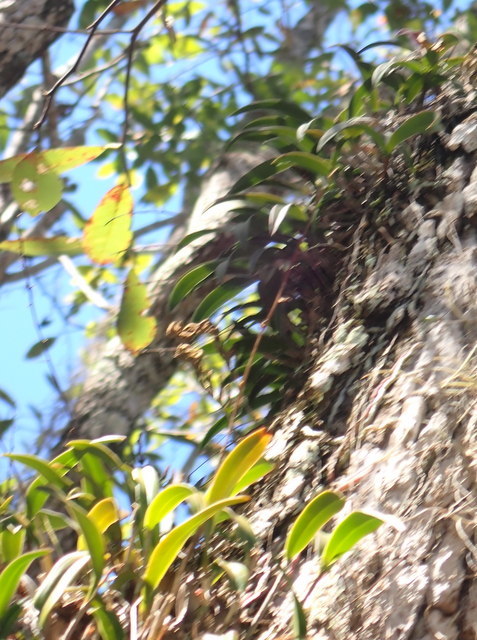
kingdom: Plantae
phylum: Tracheophyta
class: Liliopsida
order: Asparagales
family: Orchidaceae
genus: Epidendrum
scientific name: Epidendrum conopseum
